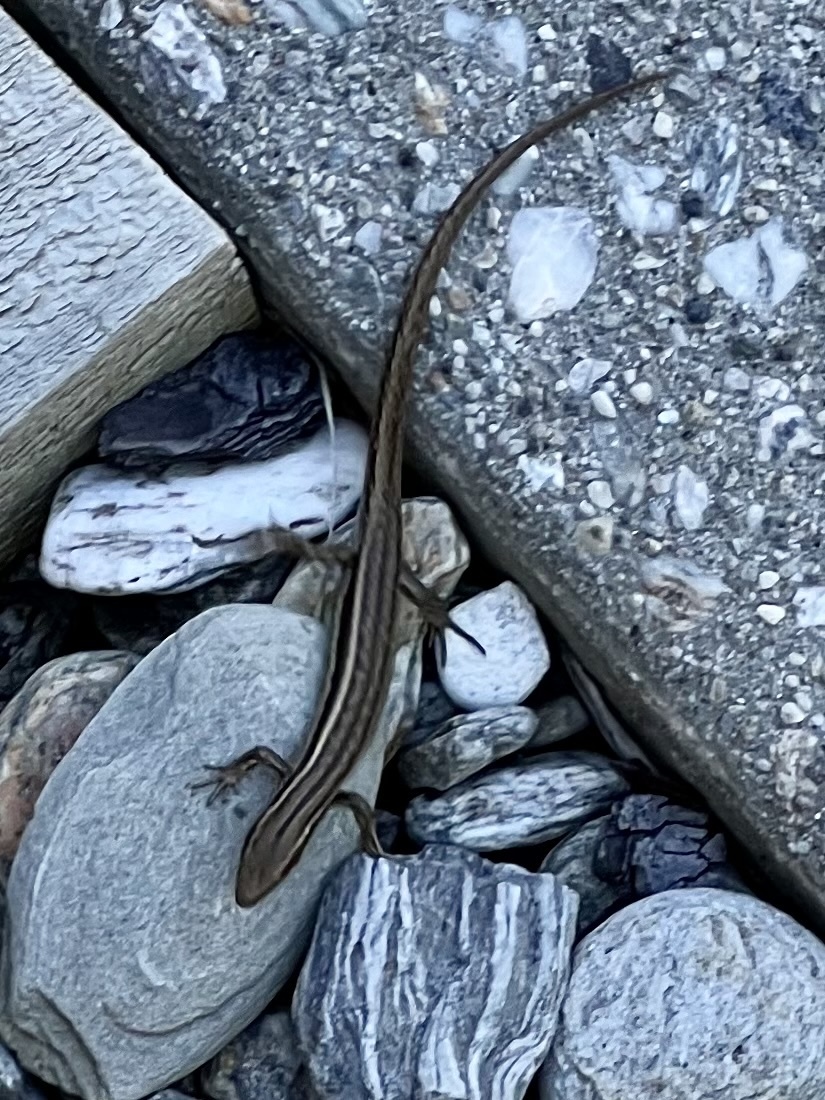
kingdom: Animalia
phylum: Chordata
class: Squamata
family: Scincidae
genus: Oligosoma
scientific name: Oligosoma maccanni
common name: Mccann’s skink
